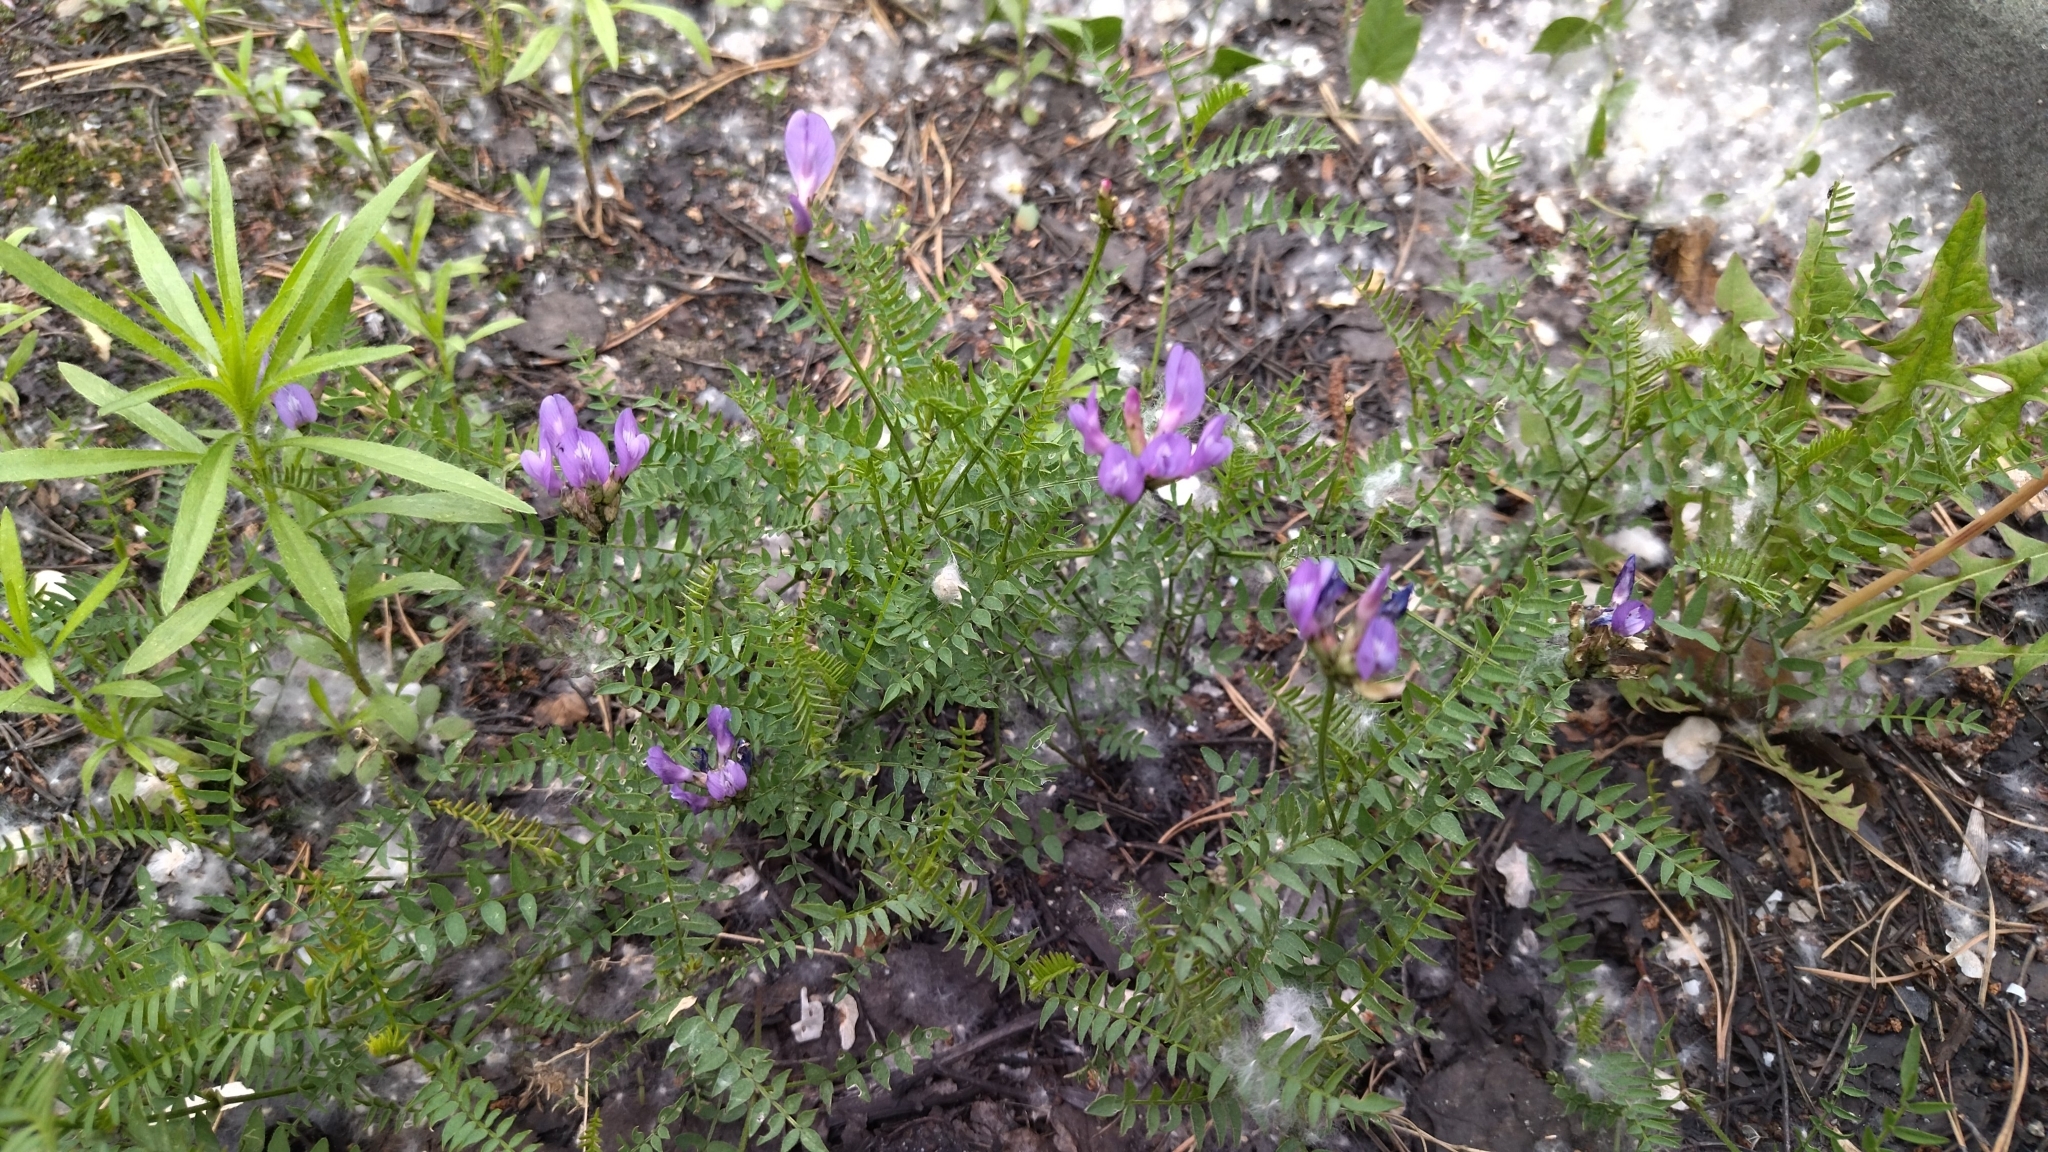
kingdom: Plantae
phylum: Tracheophyta
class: Magnoliopsida
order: Fabales
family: Fabaceae
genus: Astragalus
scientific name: Astragalus danicus
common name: Purple milk-vetch
